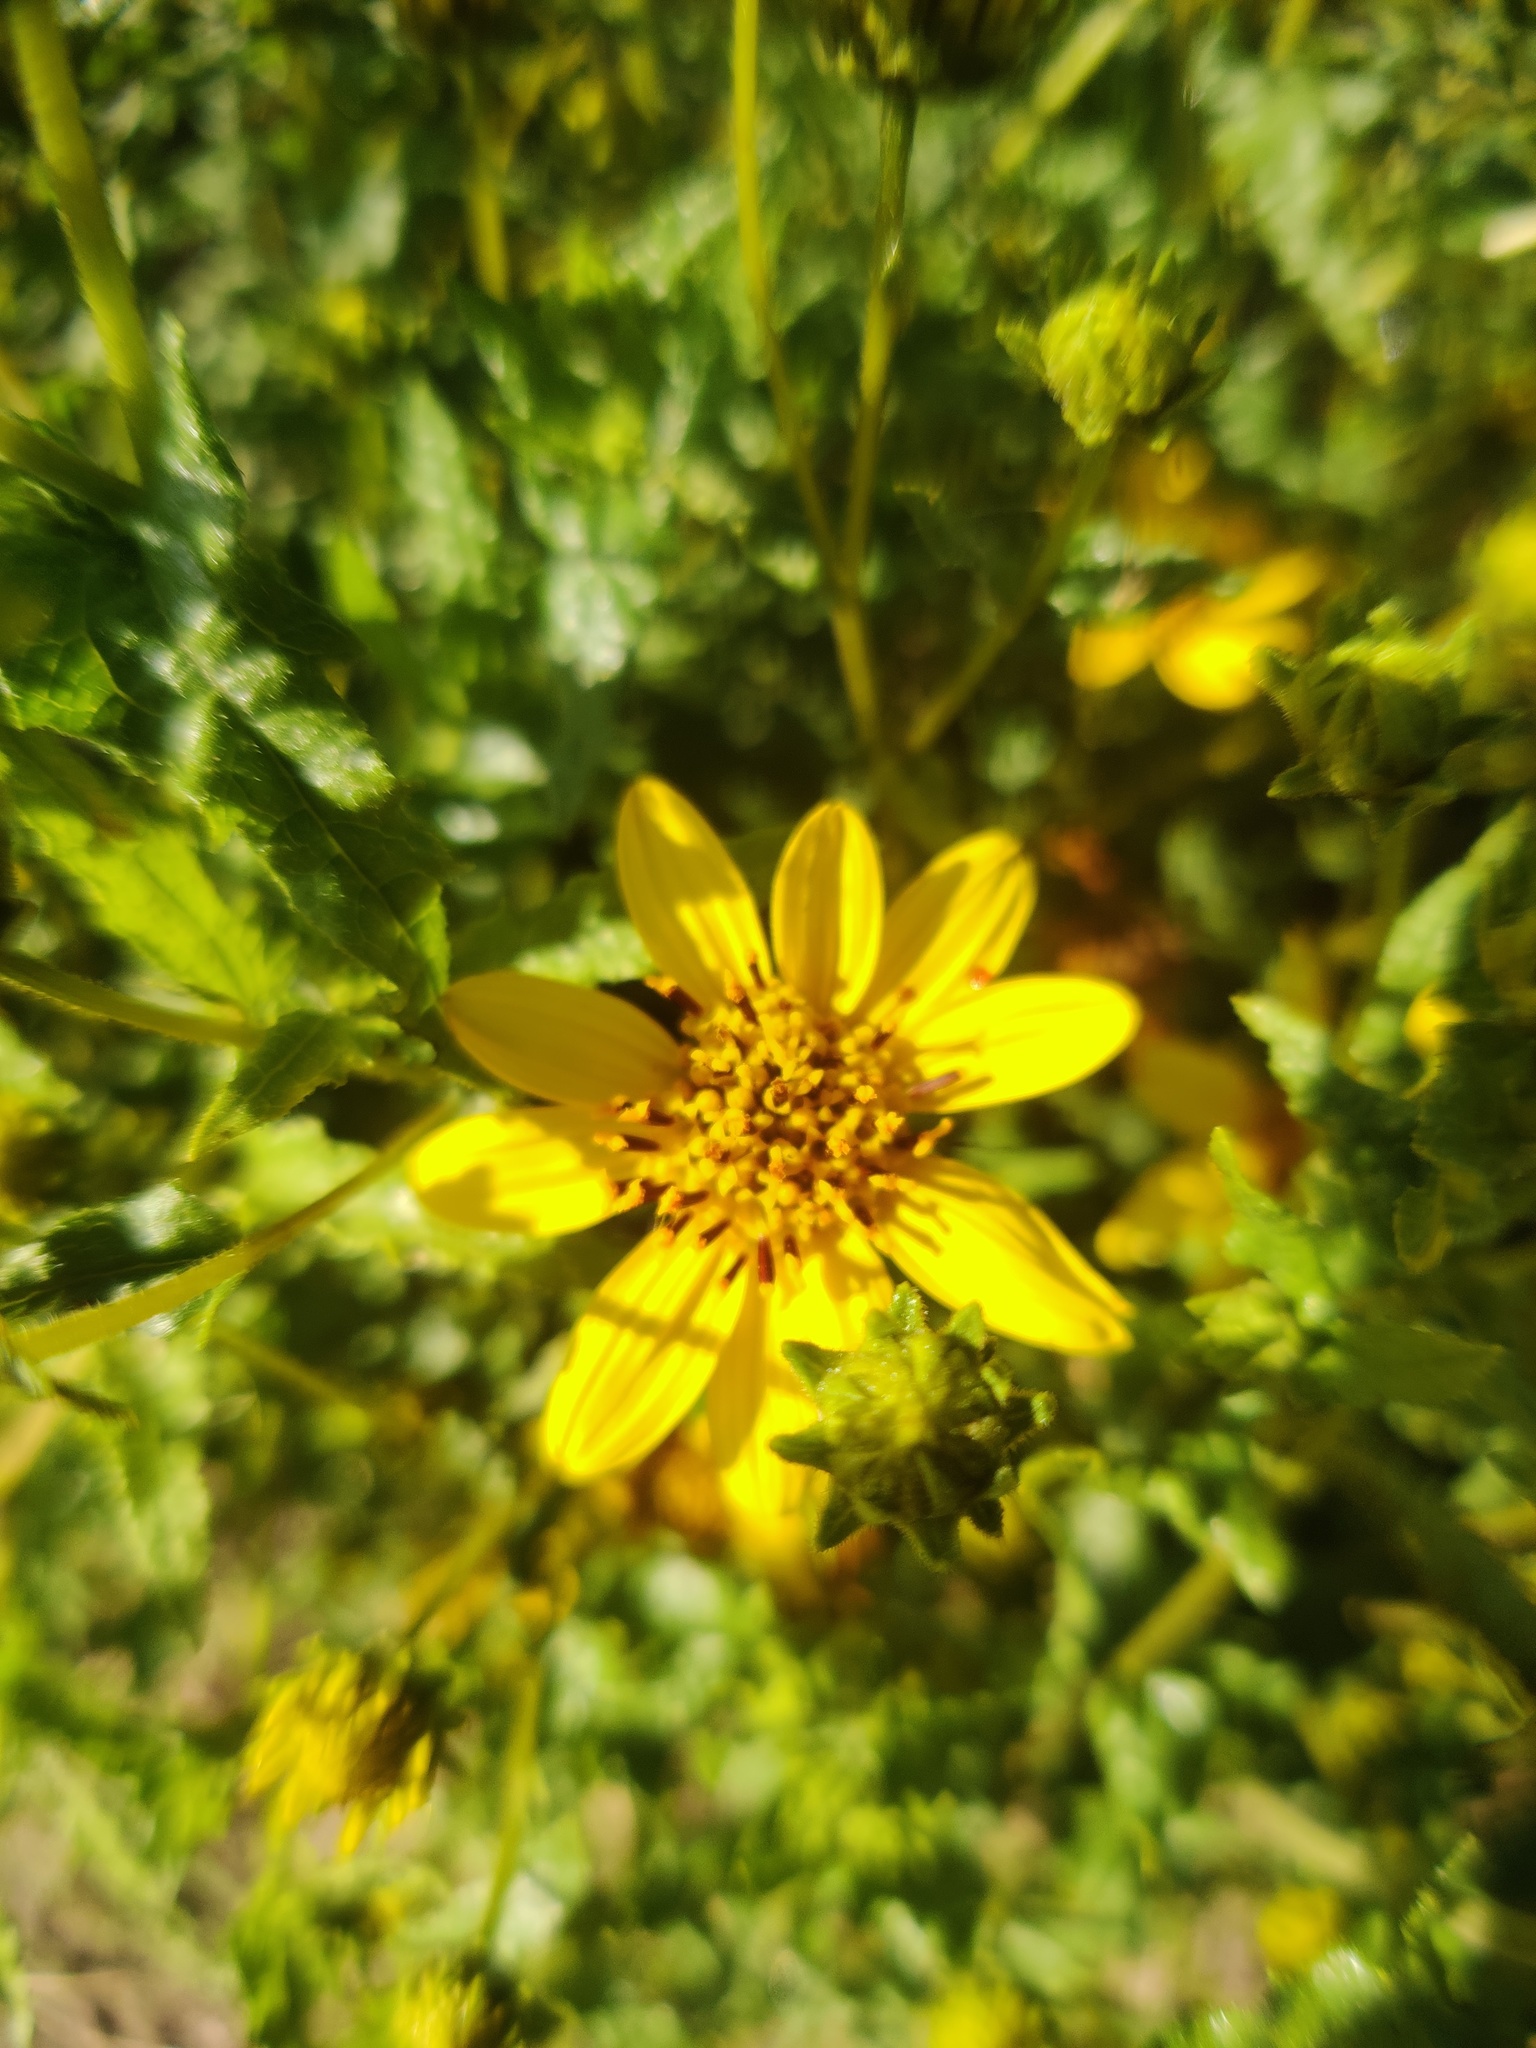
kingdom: Plantae
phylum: Tracheophyta
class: Magnoliopsida
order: Asterales
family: Asteraceae
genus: Bahiopsis
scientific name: Bahiopsis laciniata
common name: San diego county viguiera
